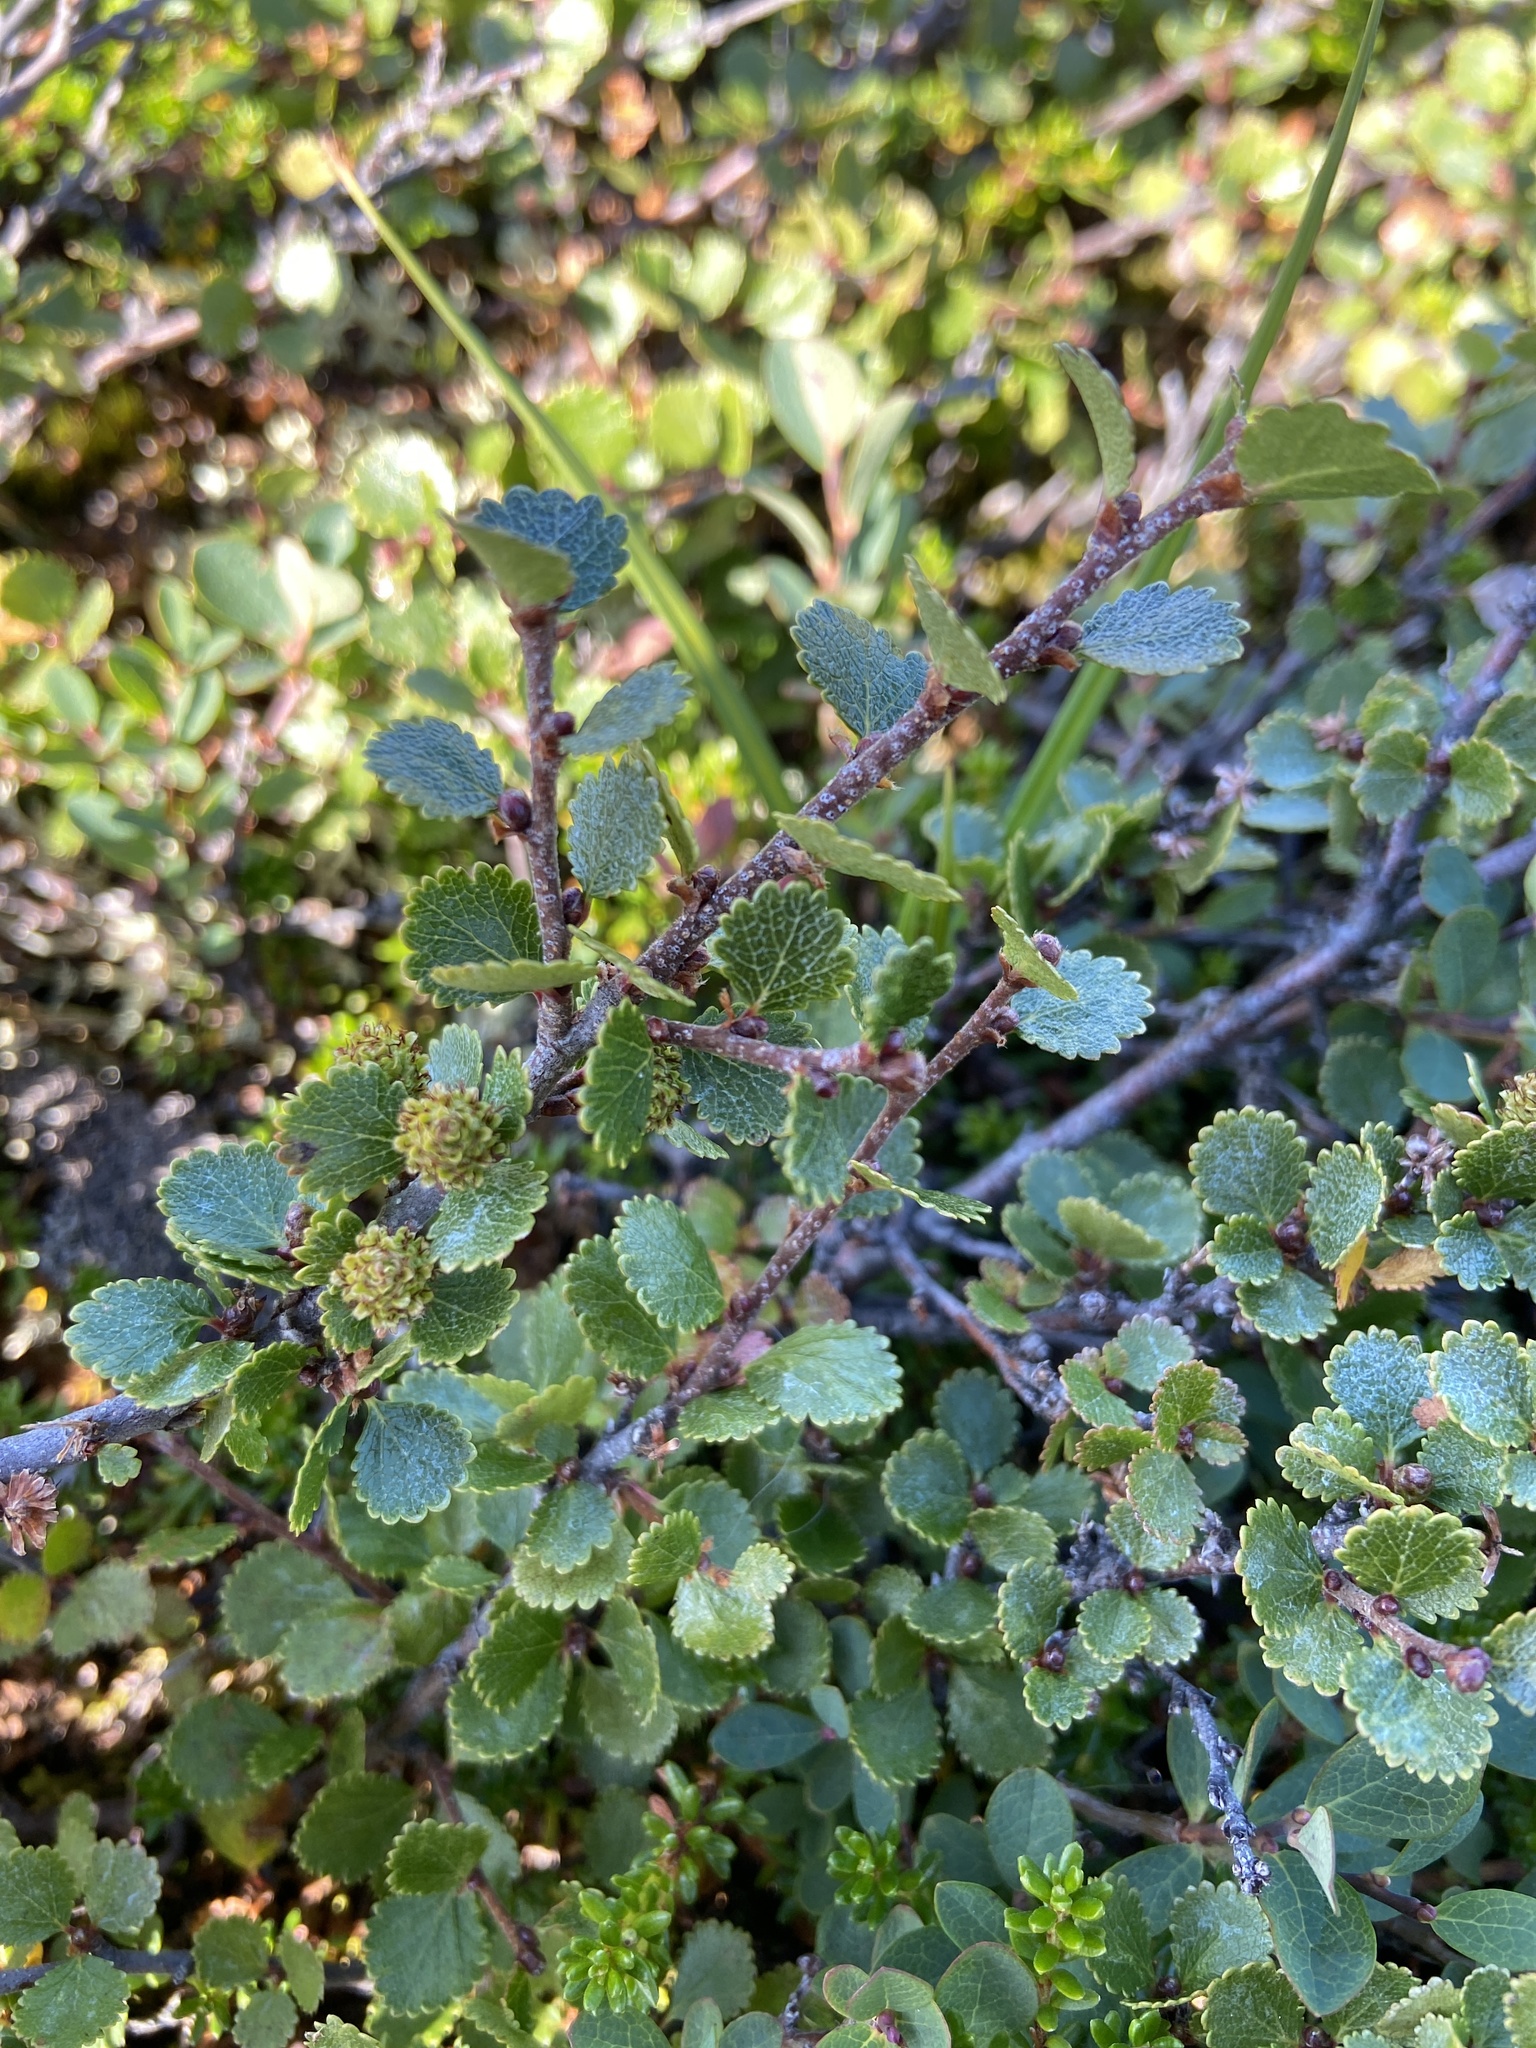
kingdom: Plantae
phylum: Tracheophyta
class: Magnoliopsida
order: Fagales
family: Betulaceae
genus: Betula
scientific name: Betula nana
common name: Arctic dwarf birch
